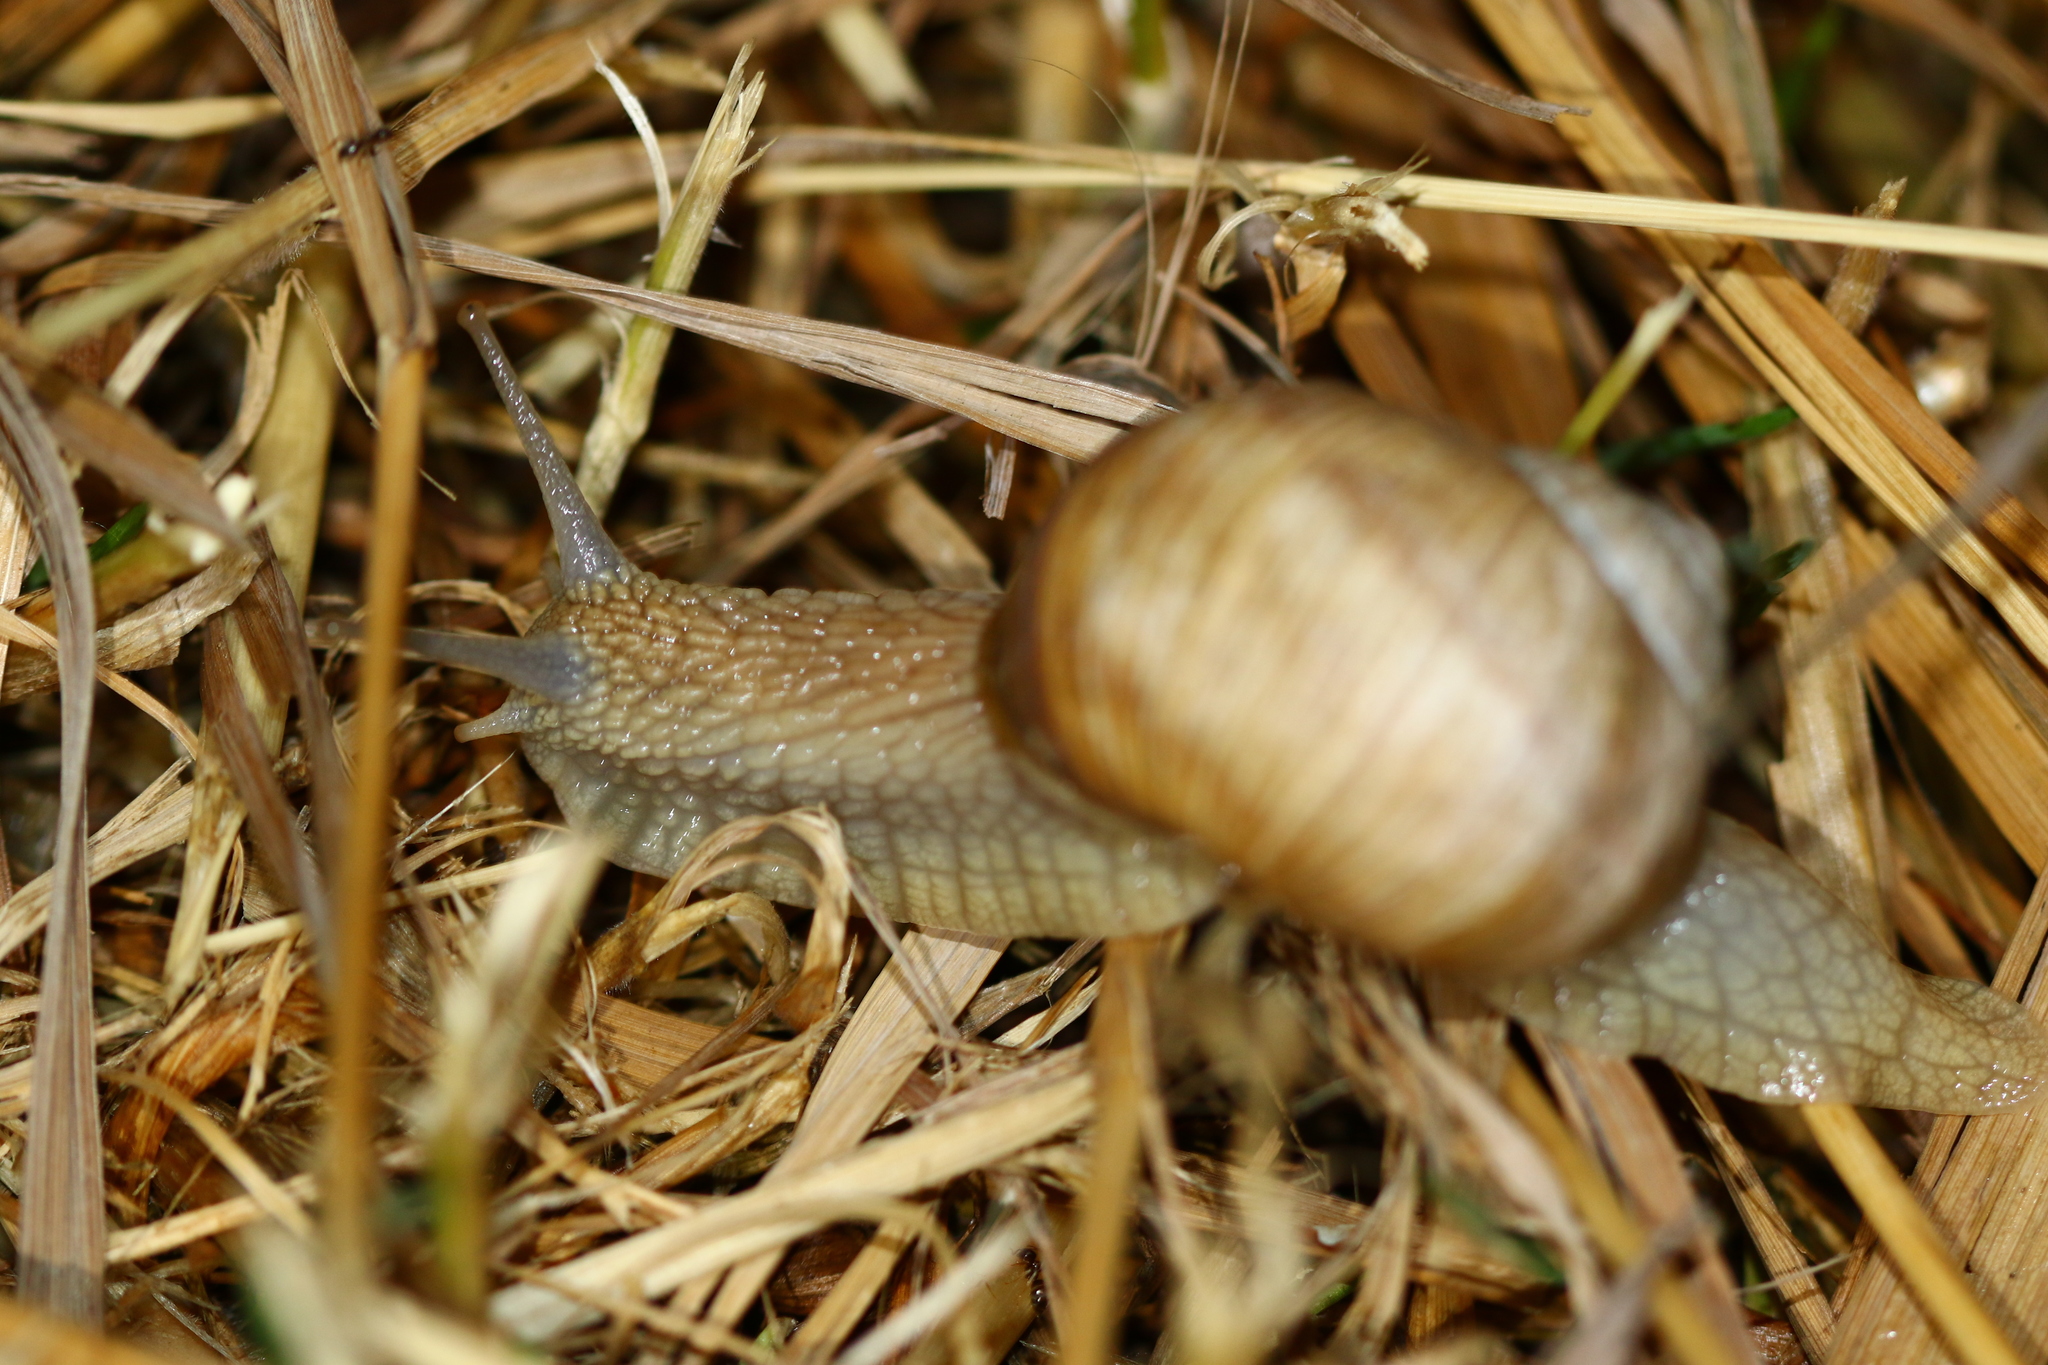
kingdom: Animalia
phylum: Mollusca
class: Gastropoda
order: Stylommatophora
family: Helicidae
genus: Helix
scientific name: Helix pomatia
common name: Roman snail
